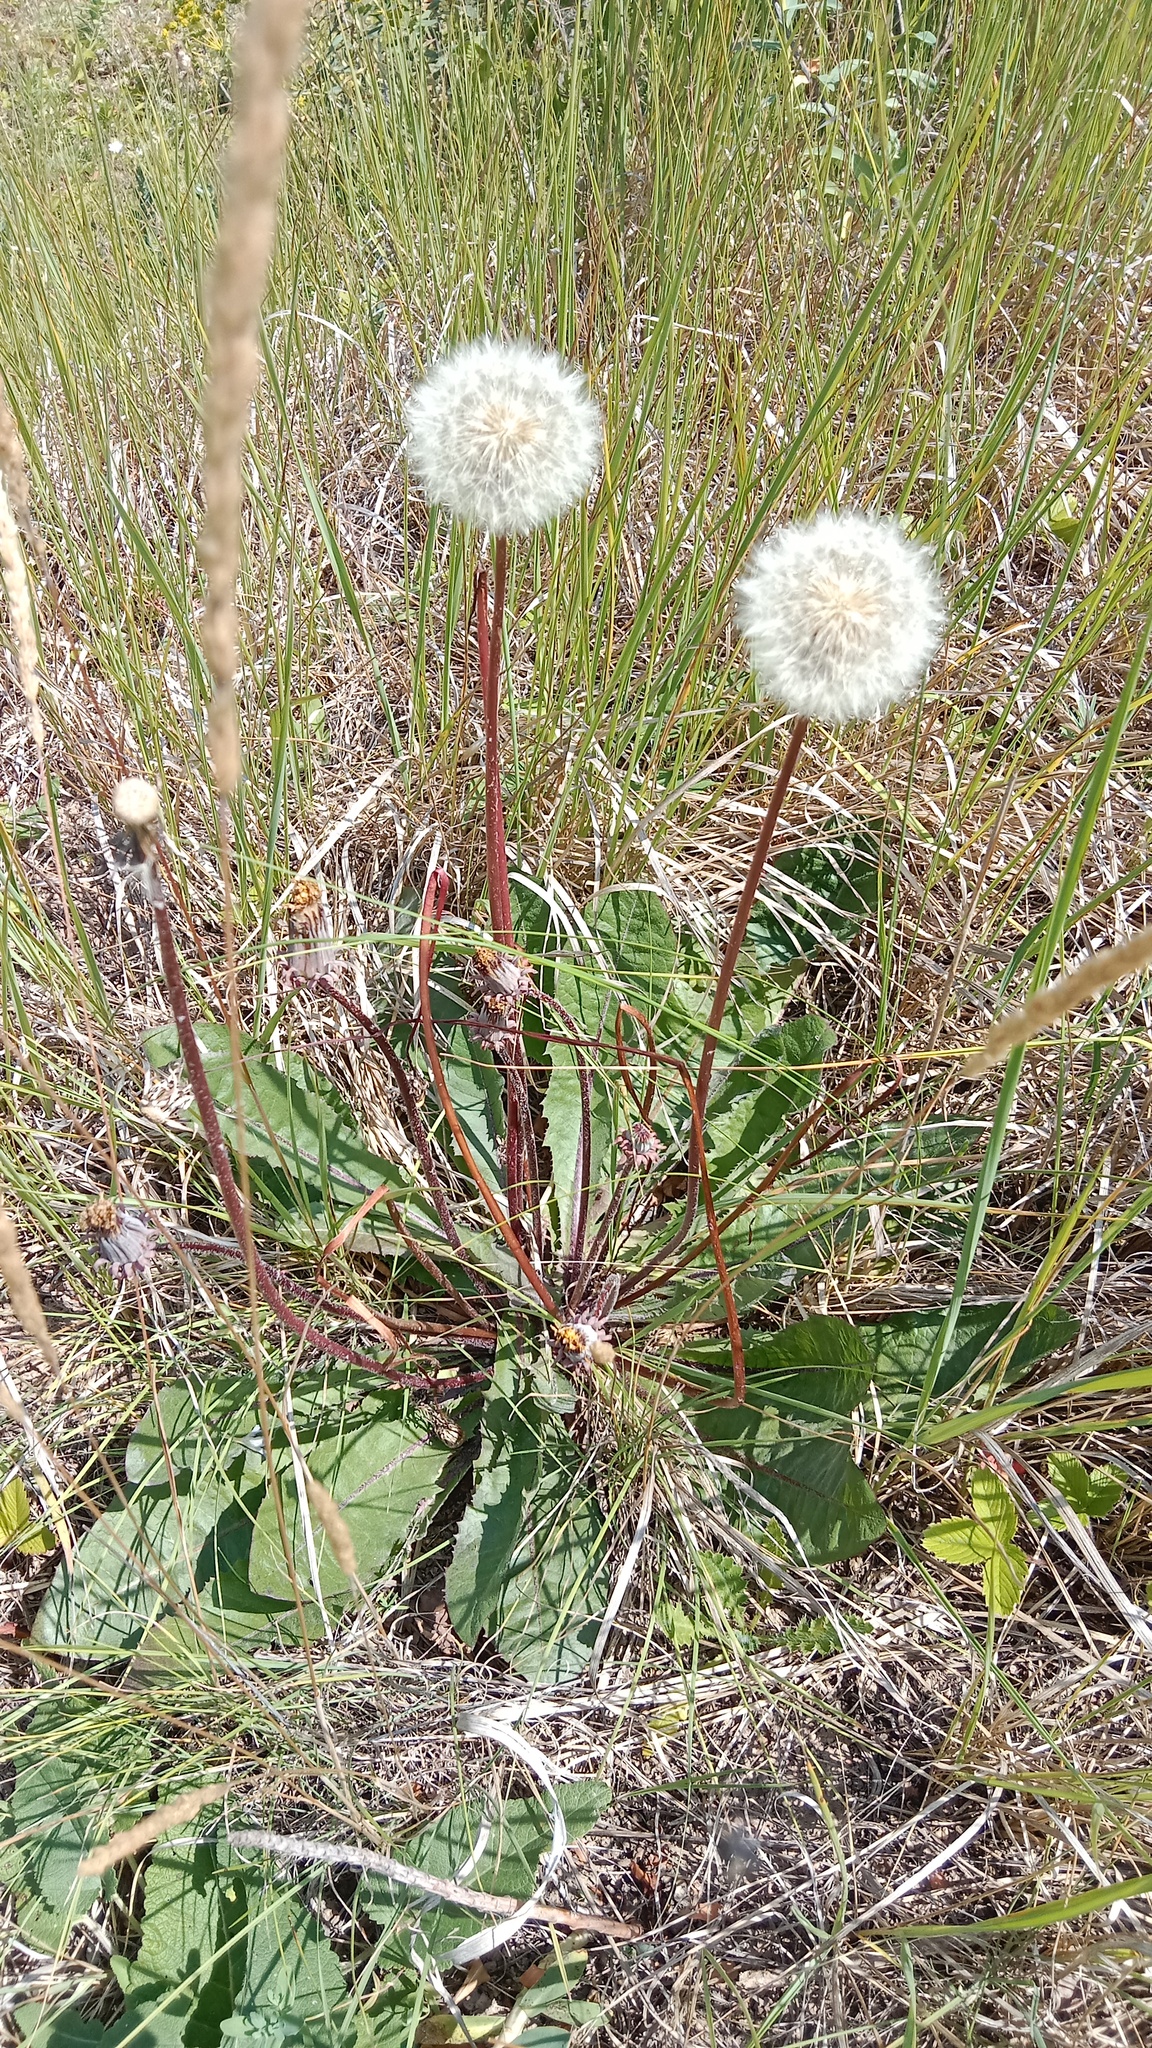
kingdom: Plantae
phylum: Tracheophyta
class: Magnoliopsida
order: Asterales
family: Asteraceae
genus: Taraxacum
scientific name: Taraxacum serotinum
